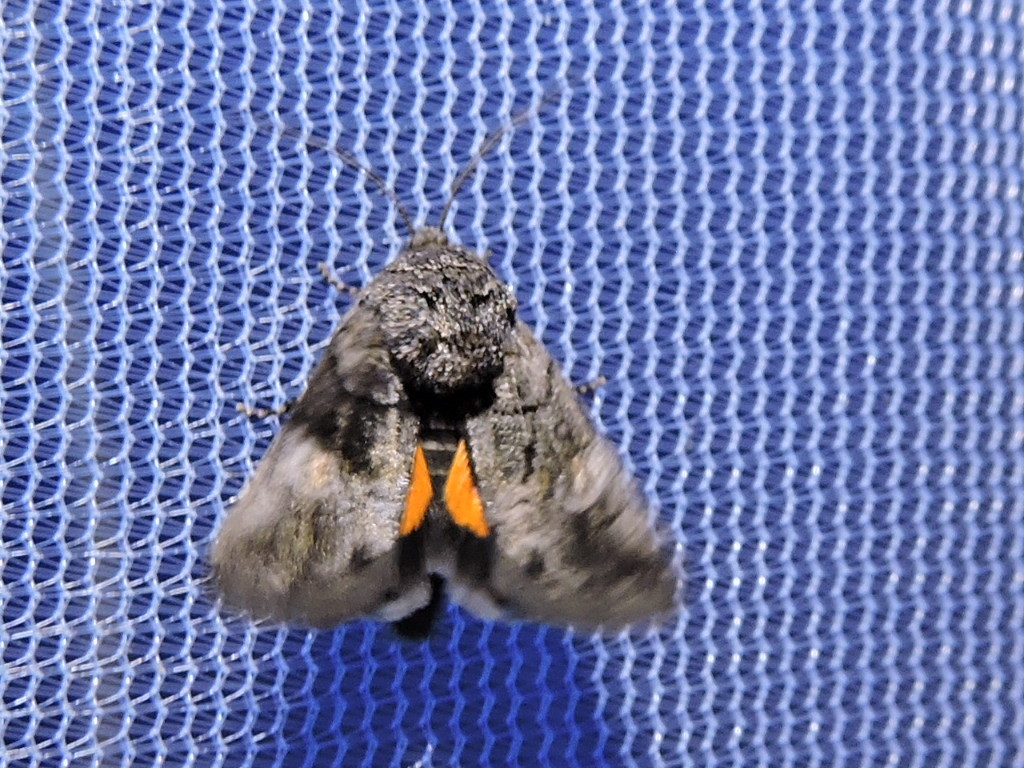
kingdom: Animalia
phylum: Arthropoda
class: Insecta
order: Lepidoptera
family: Noctuidae
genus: Copanarta
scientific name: Copanarta aurea
